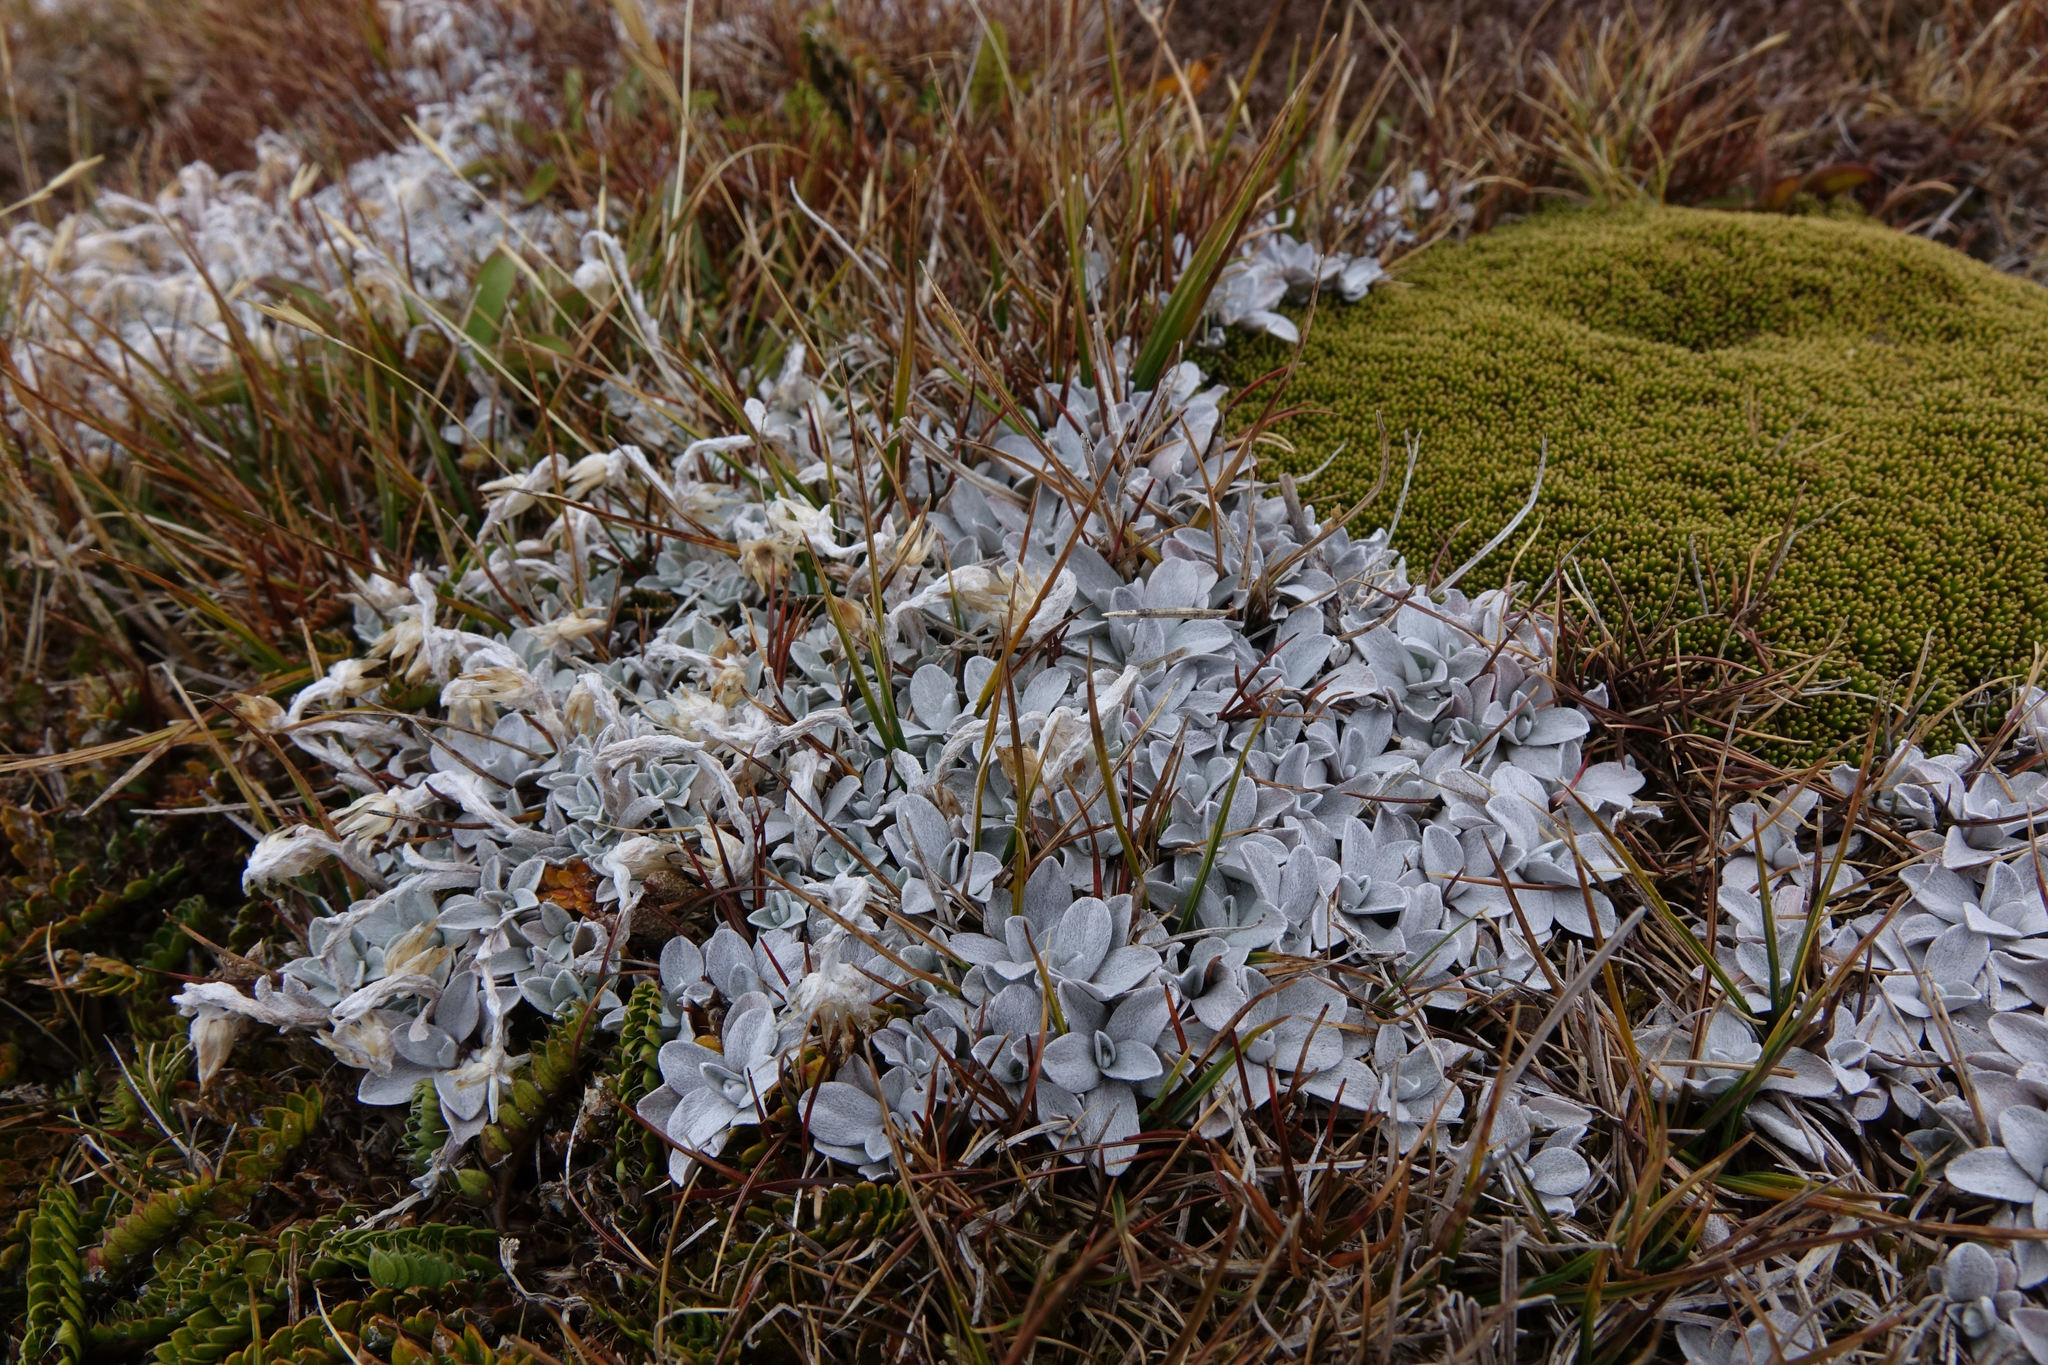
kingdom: Plantae
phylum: Tracheophyta
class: Magnoliopsida
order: Asterales
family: Asteraceae
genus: Argyrotegium
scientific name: Argyrotegium mackayi
